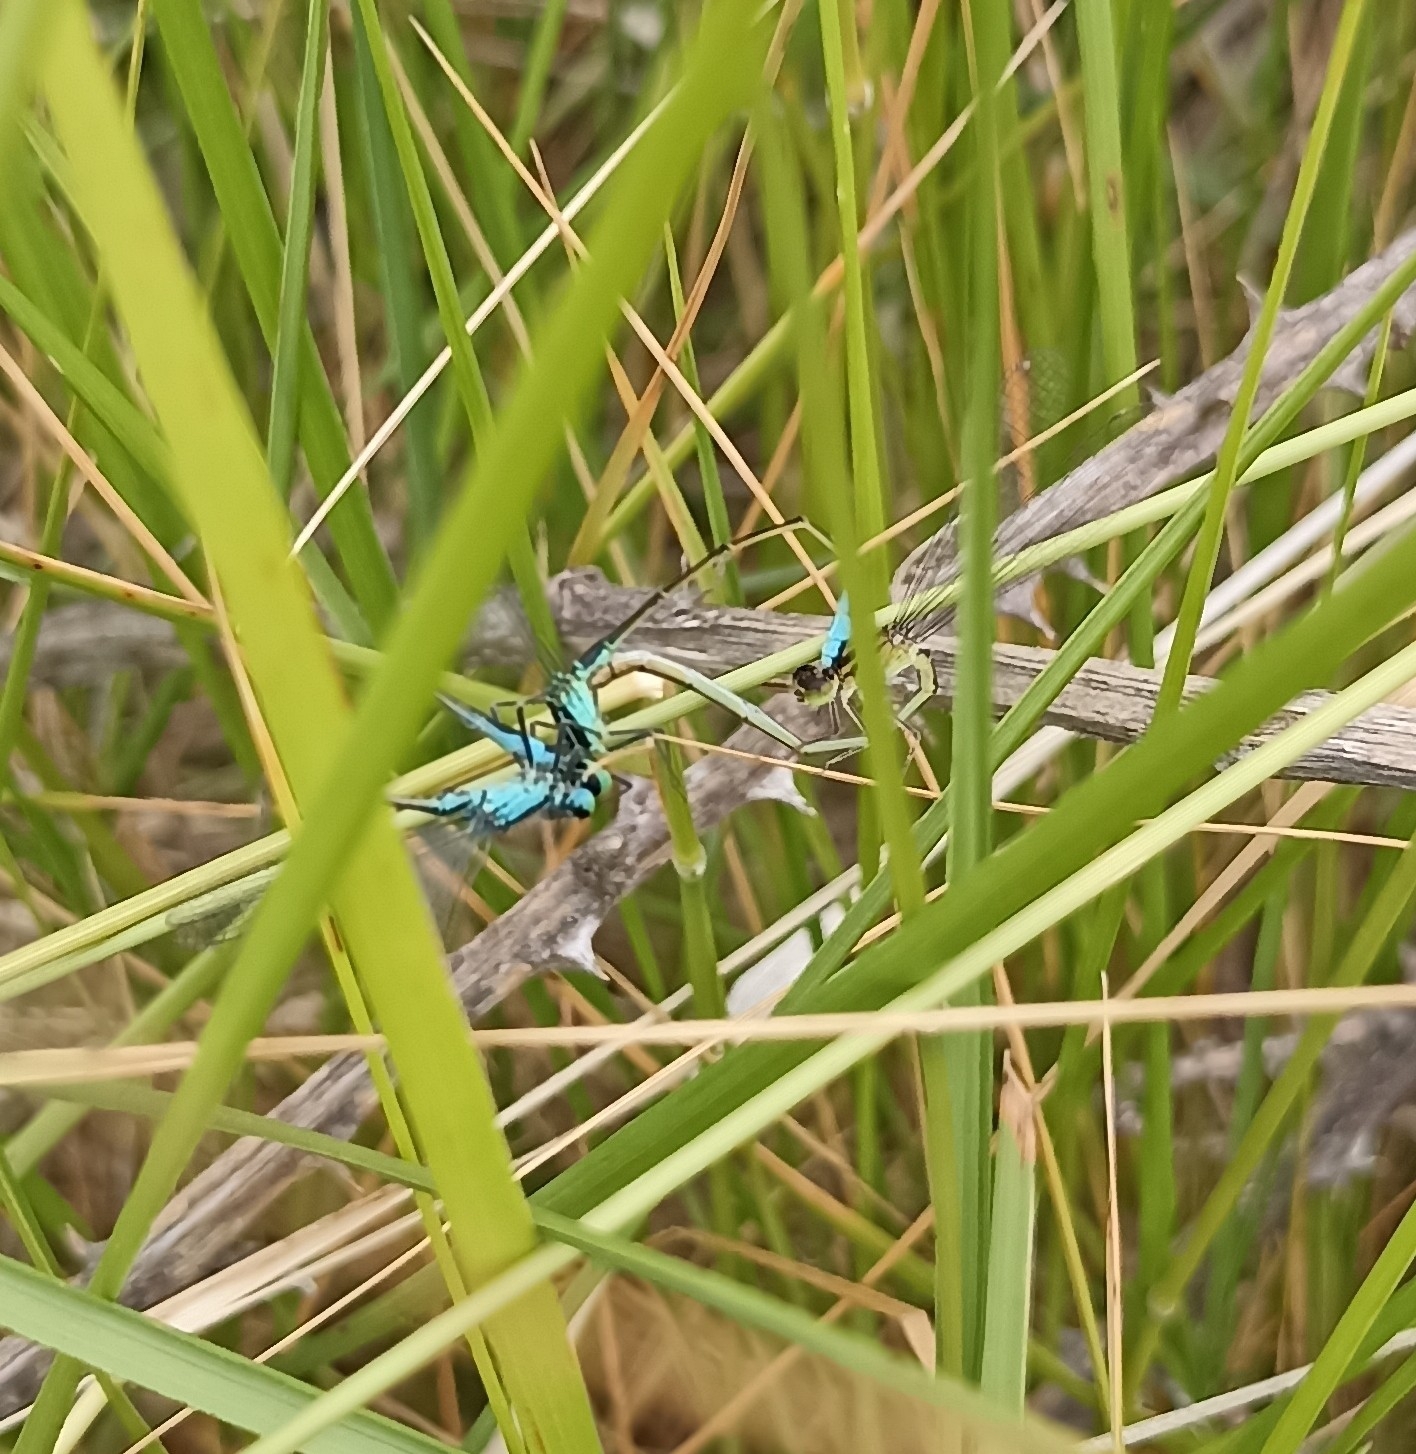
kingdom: Animalia
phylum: Arthropoda
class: Insecta
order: Odonata
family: Coenagrionidae
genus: Ischnura
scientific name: Ischnura elegans
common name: Blue-tailed damselfly
